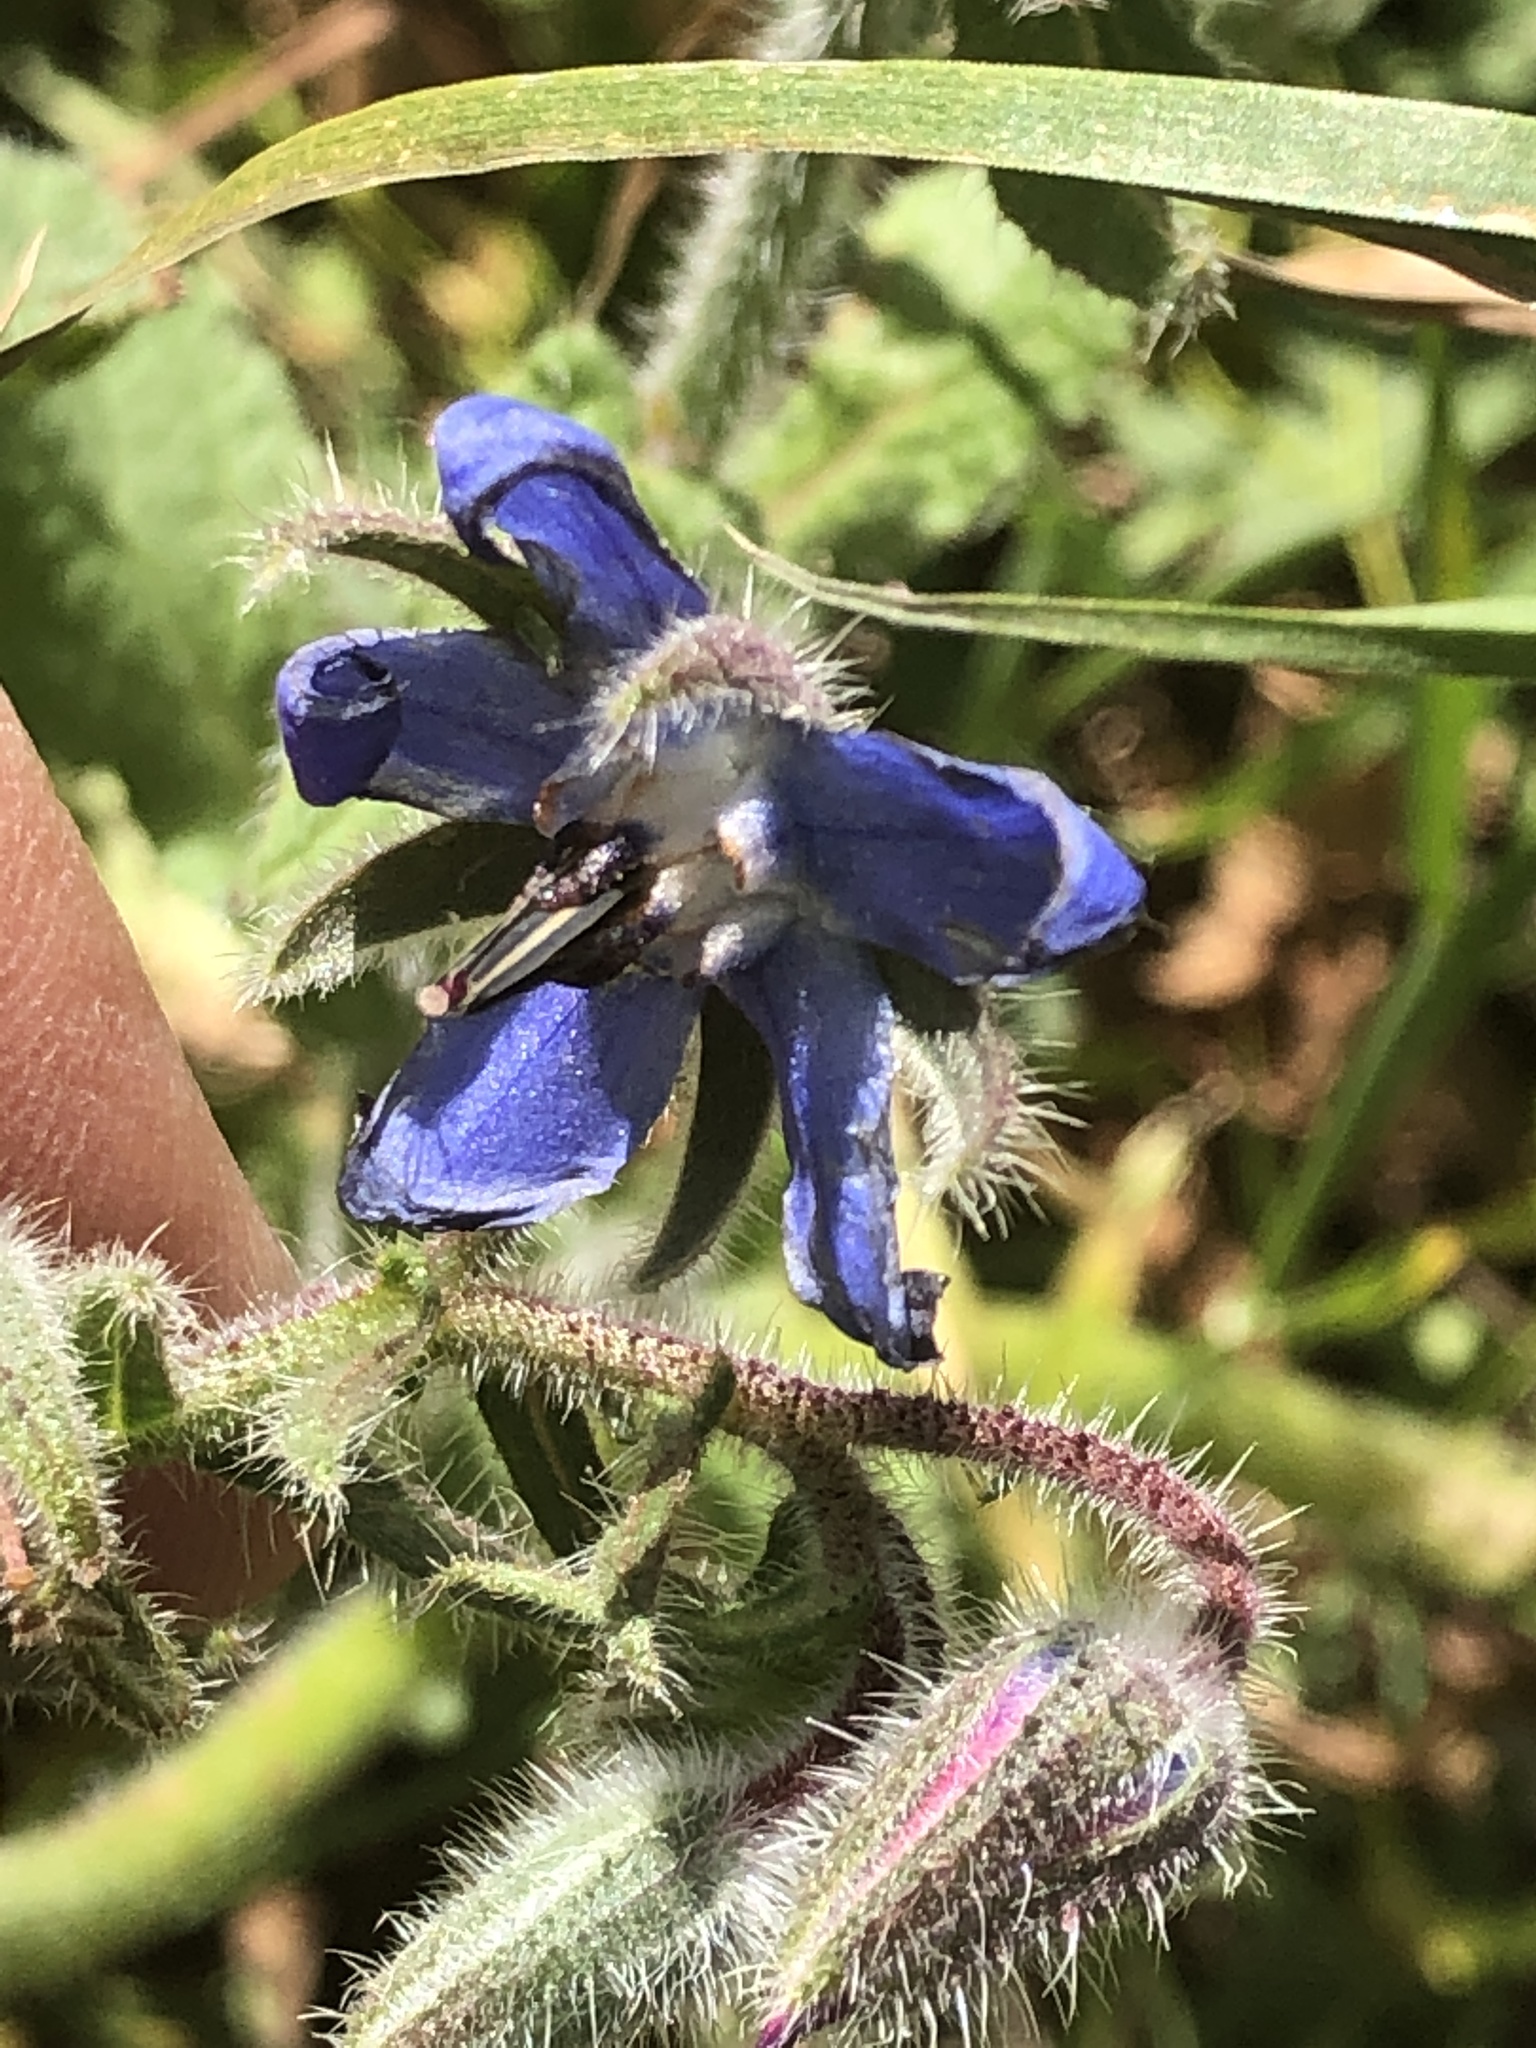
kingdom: Plantae
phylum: Tracheophyta
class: Magnoliopsida
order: Boraginales
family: Boraginaceae
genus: Borago
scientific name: Borago officinalis
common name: Borage
